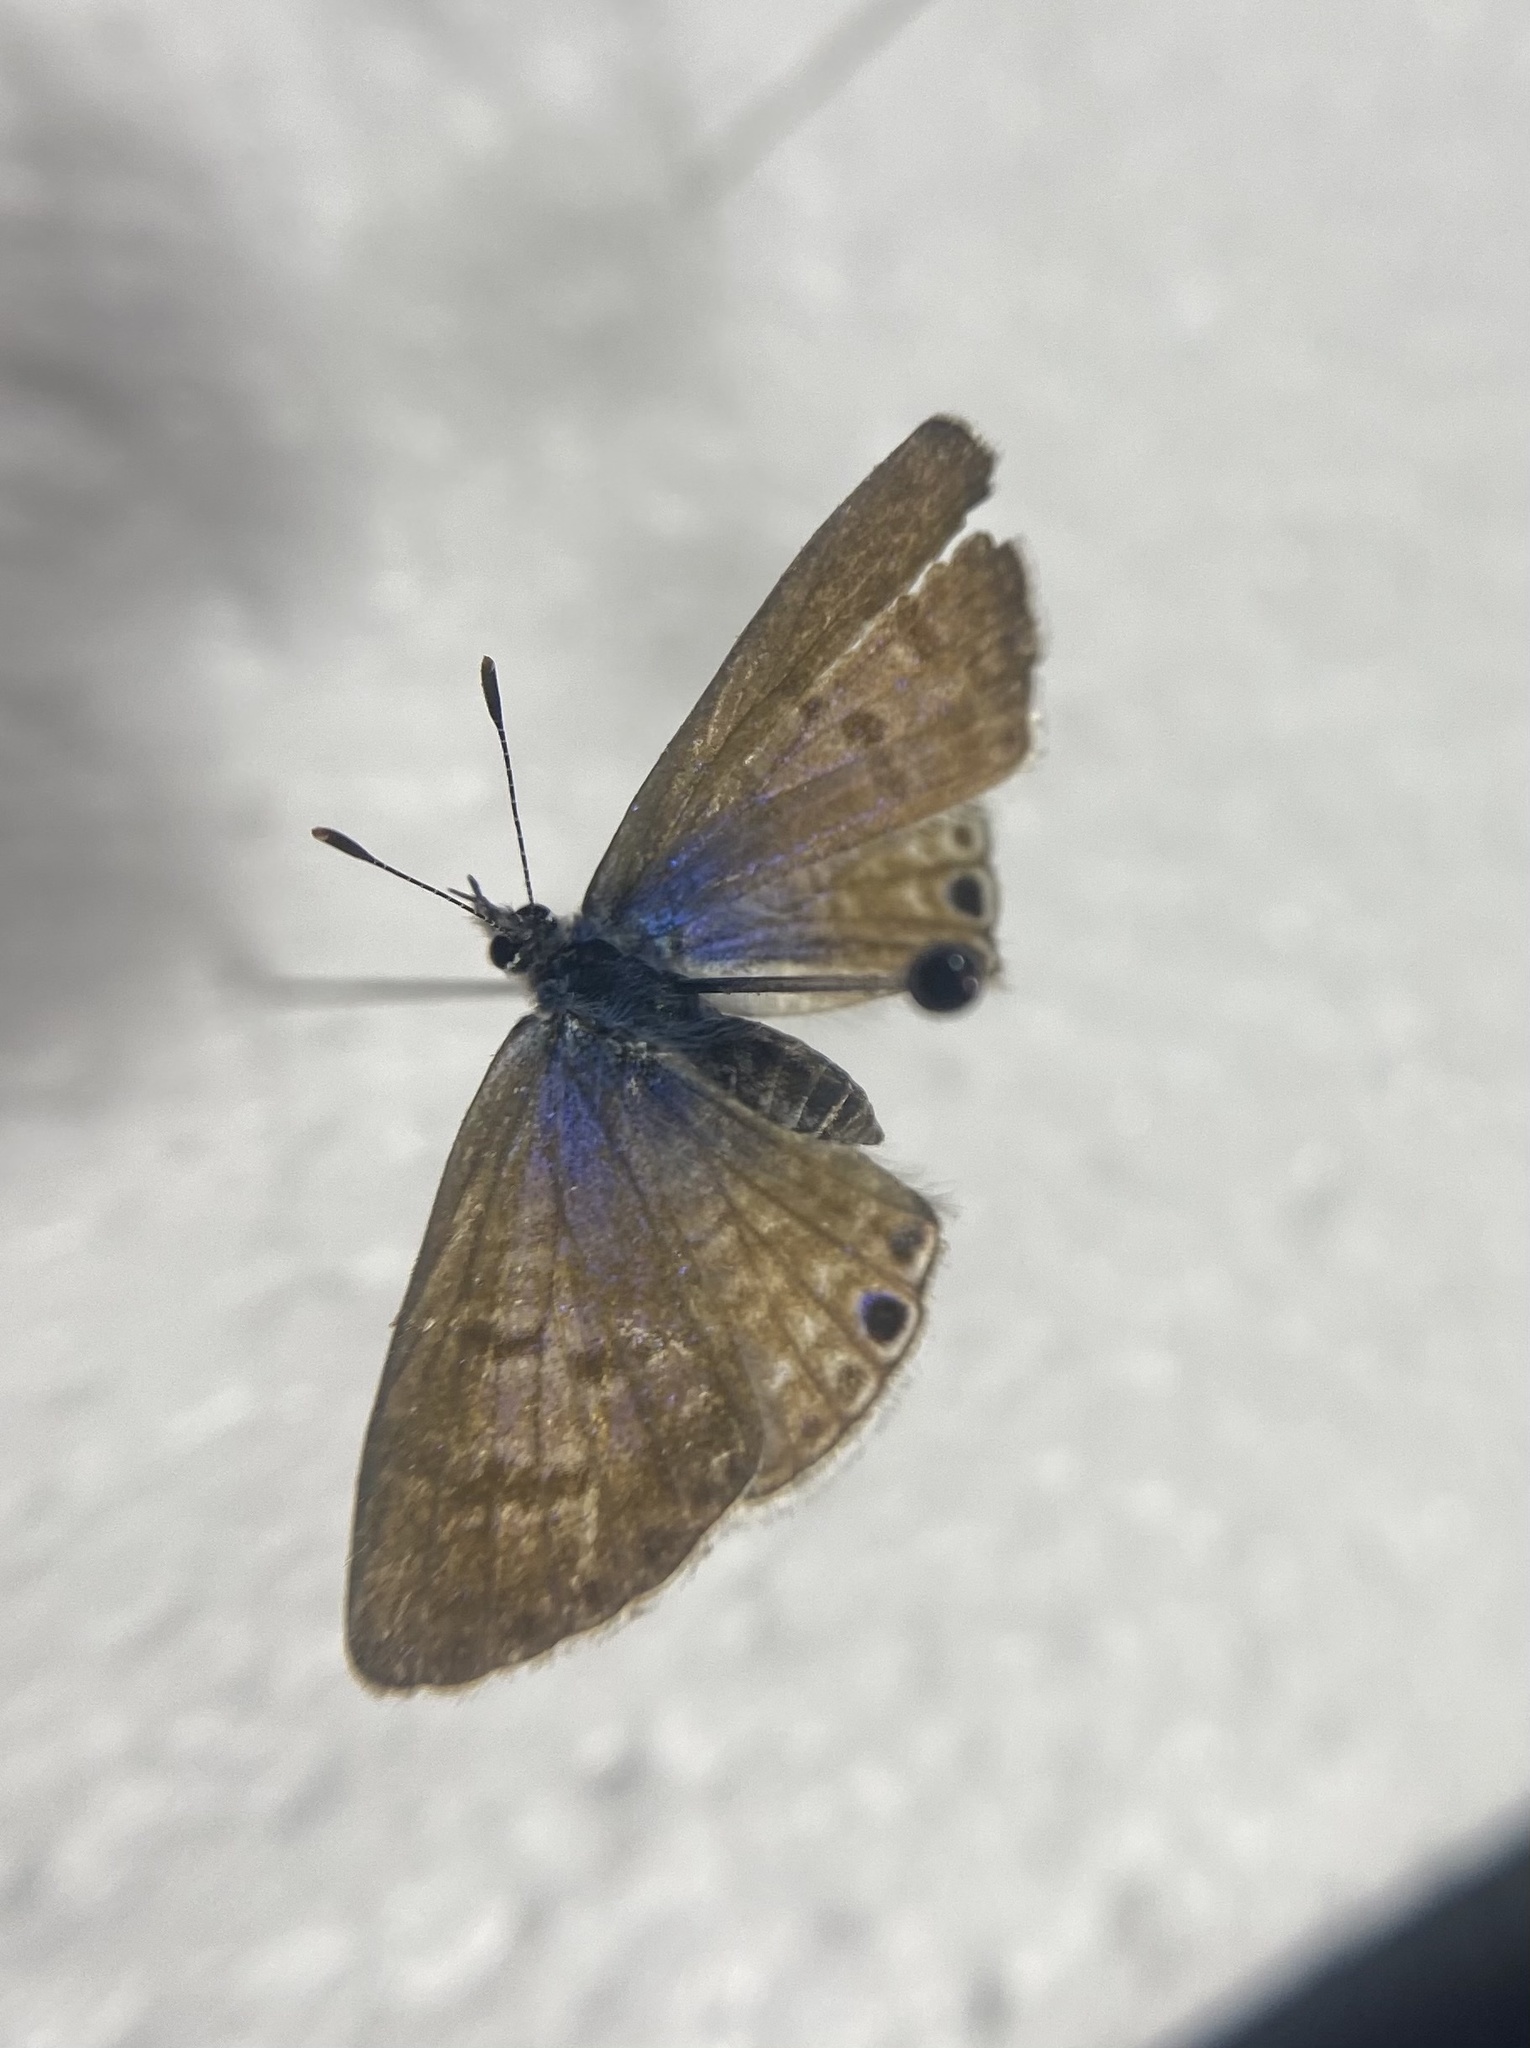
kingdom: Animalia
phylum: Arthropoda
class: Insecta
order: Lepidoptera
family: Lycaenidae
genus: Leptotes
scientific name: Leptotes marina
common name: Marine blue
